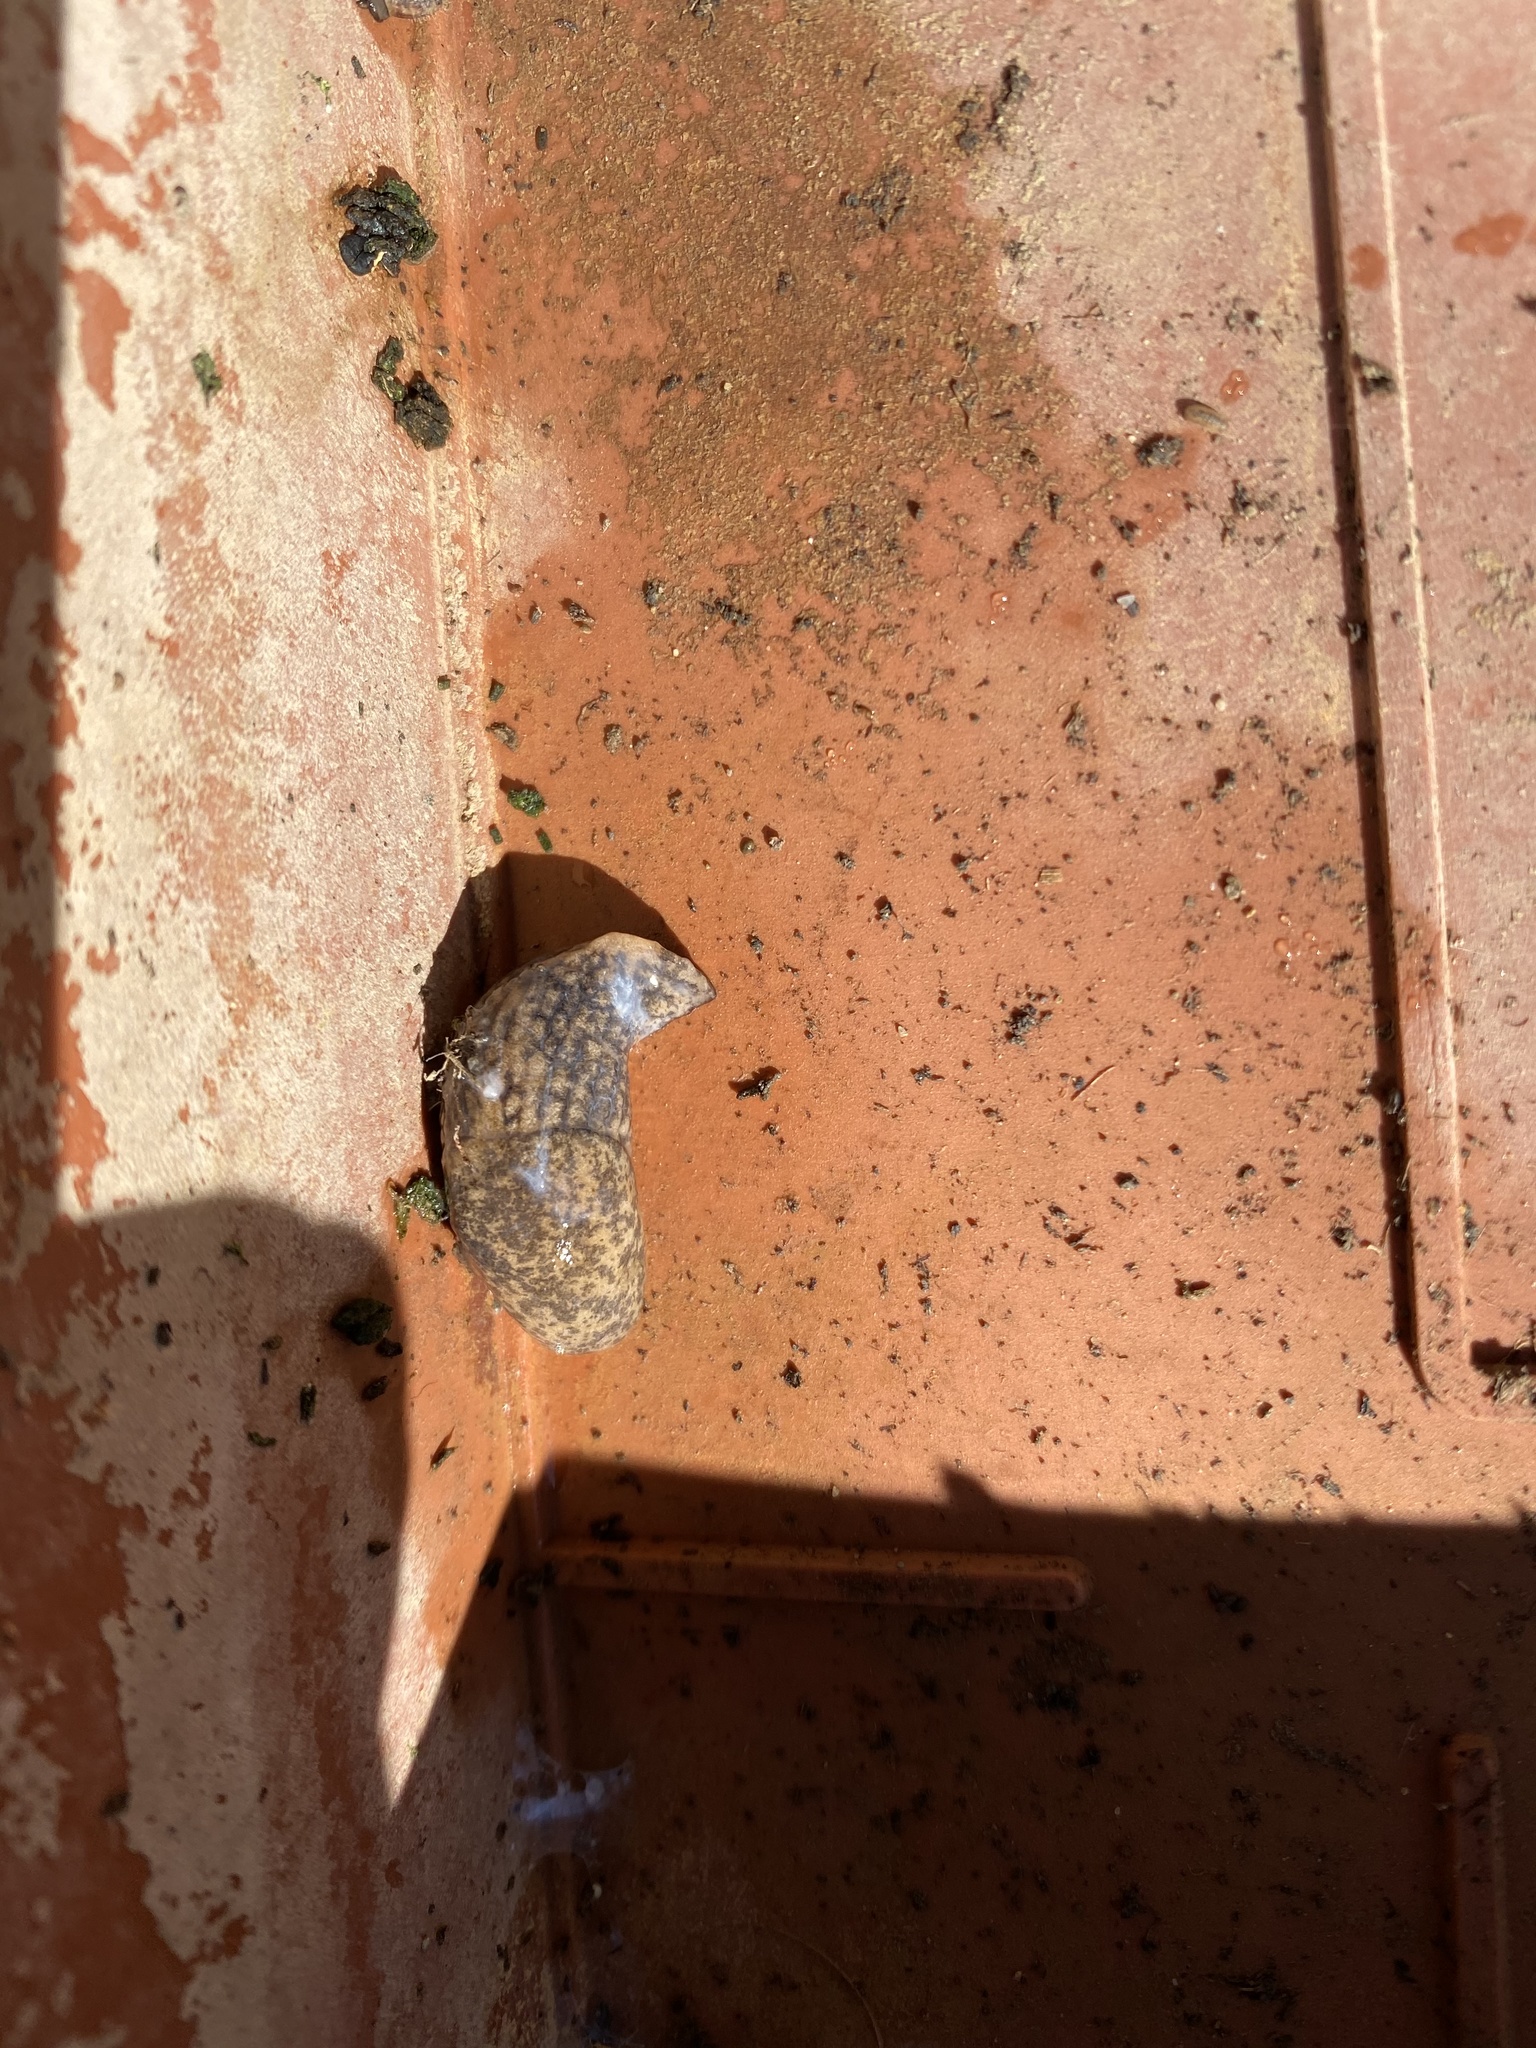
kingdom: Animalia
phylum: Mollusca
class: Gastropoda
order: Stylommatophora
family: Agriolimacidae
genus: Deroceras
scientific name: Deroceras reticulatum
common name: Gray field slug
